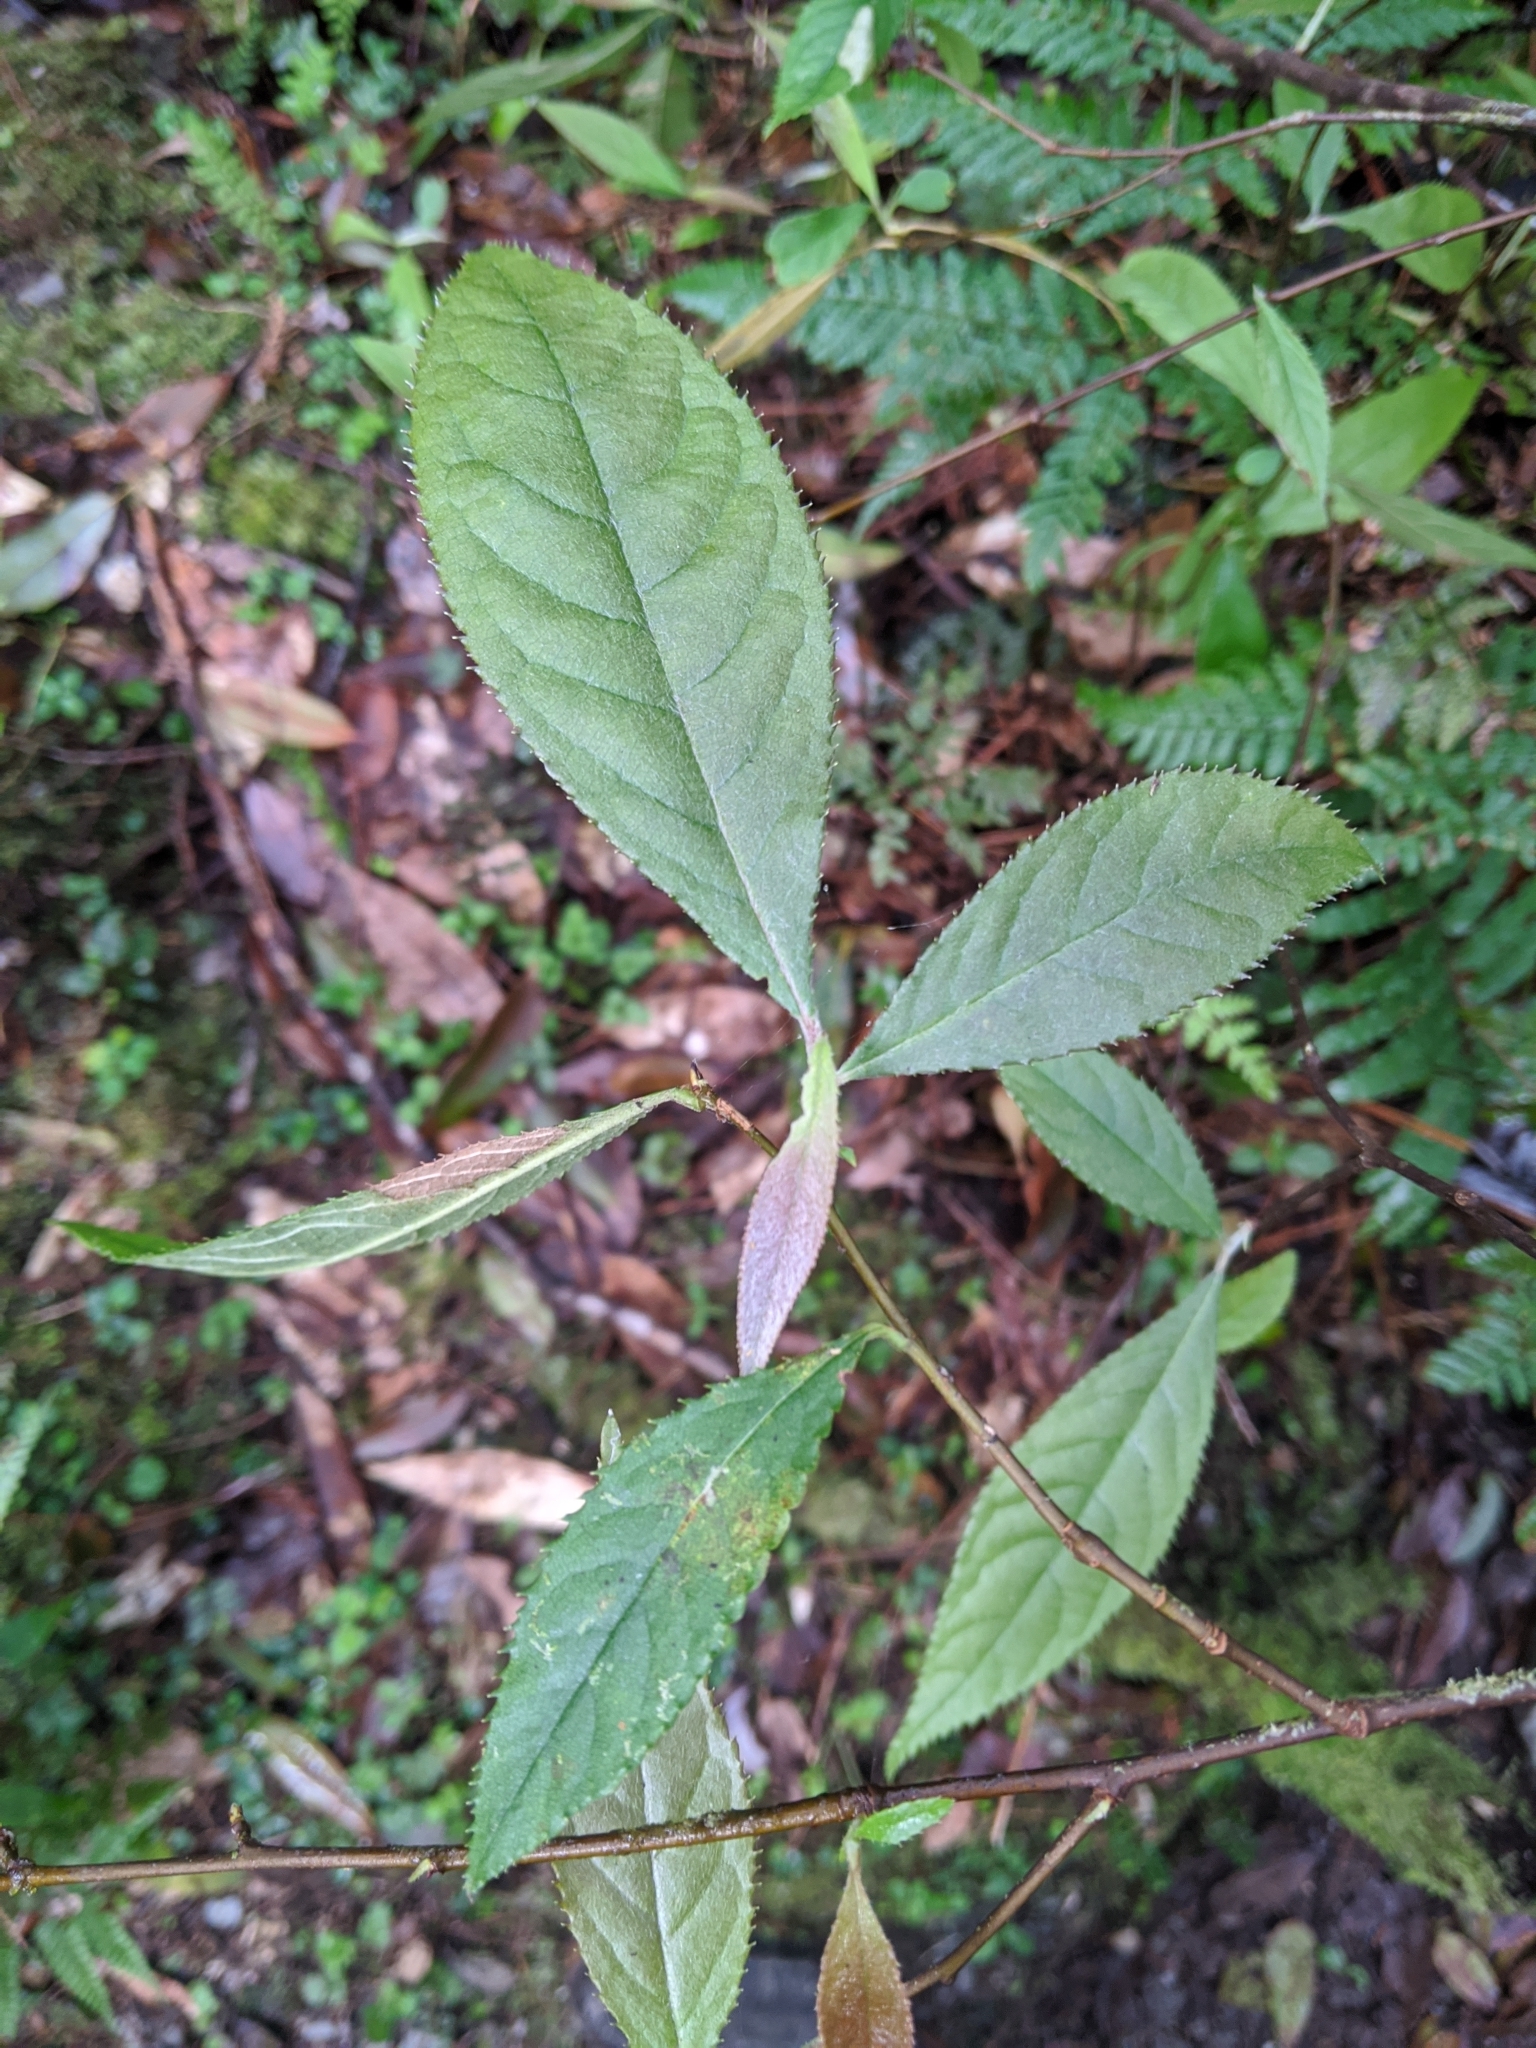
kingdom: Plantae
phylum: Tracheophyta
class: Magnoliopsida
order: Rosales
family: Rosaceae
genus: Pourthiaea
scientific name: Pourthiaea beauverdiana
